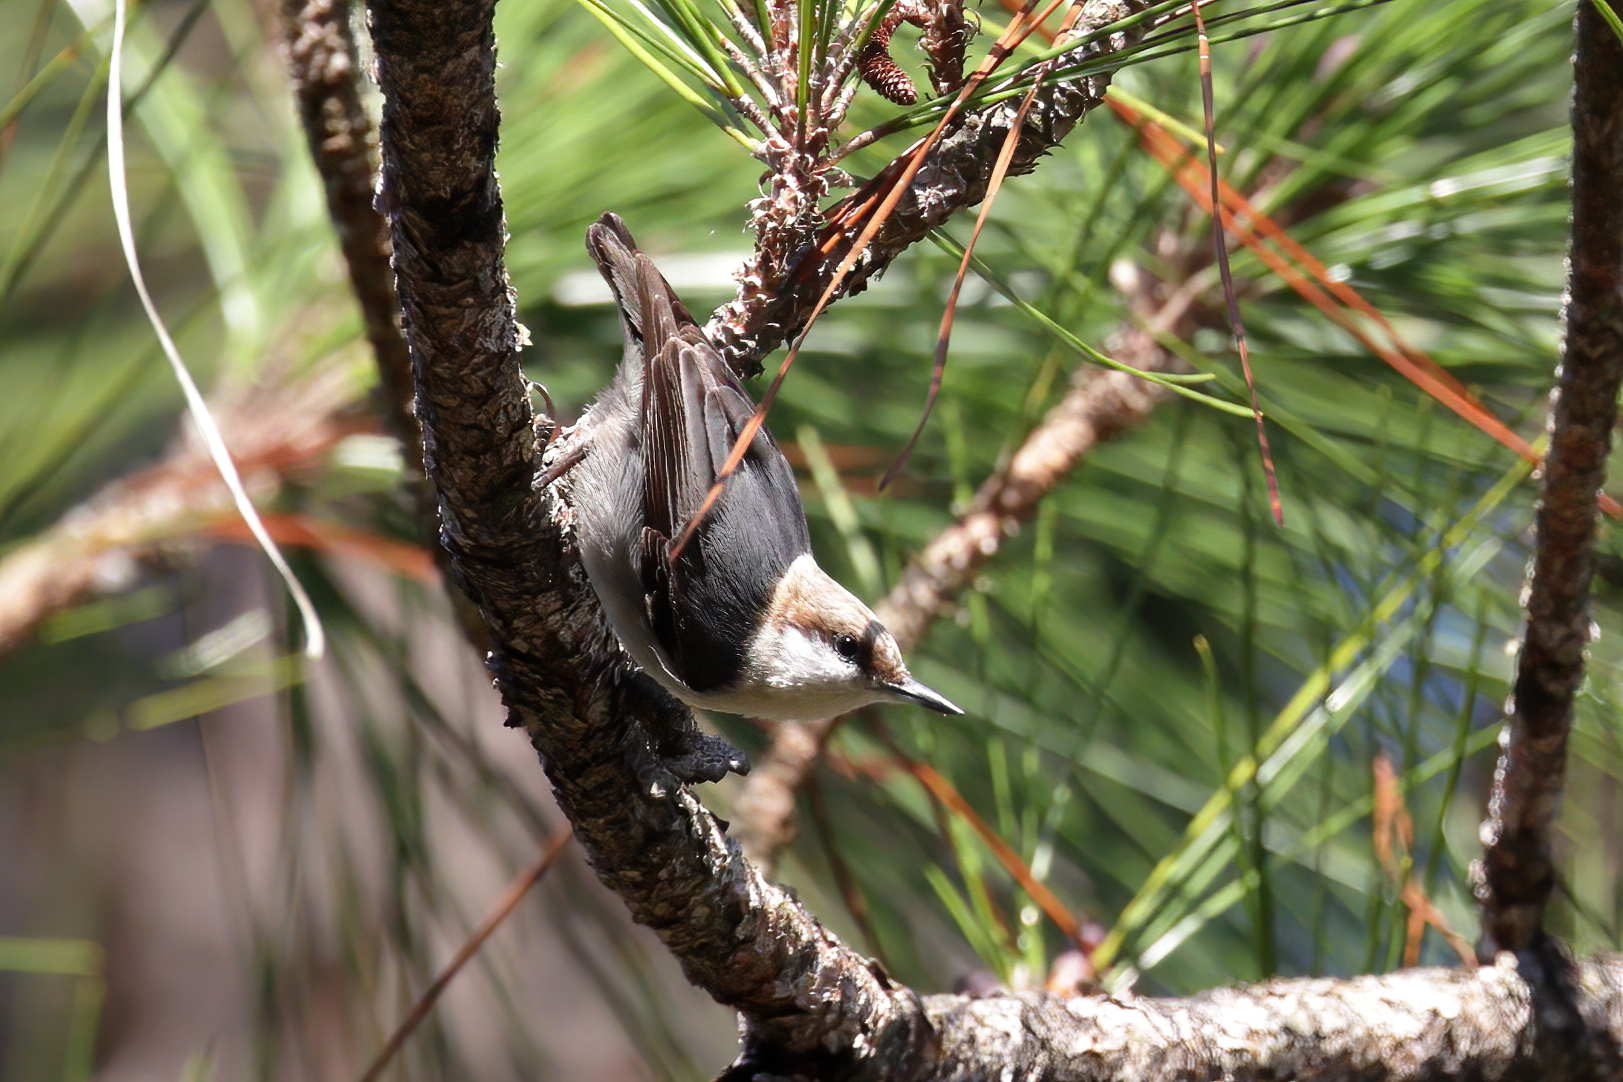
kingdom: Animalia
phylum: Chordata
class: Aves
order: Passeriformes
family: Sittidae
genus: Sitta
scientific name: Sitta pusilla
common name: Brown-headed nuthatch
